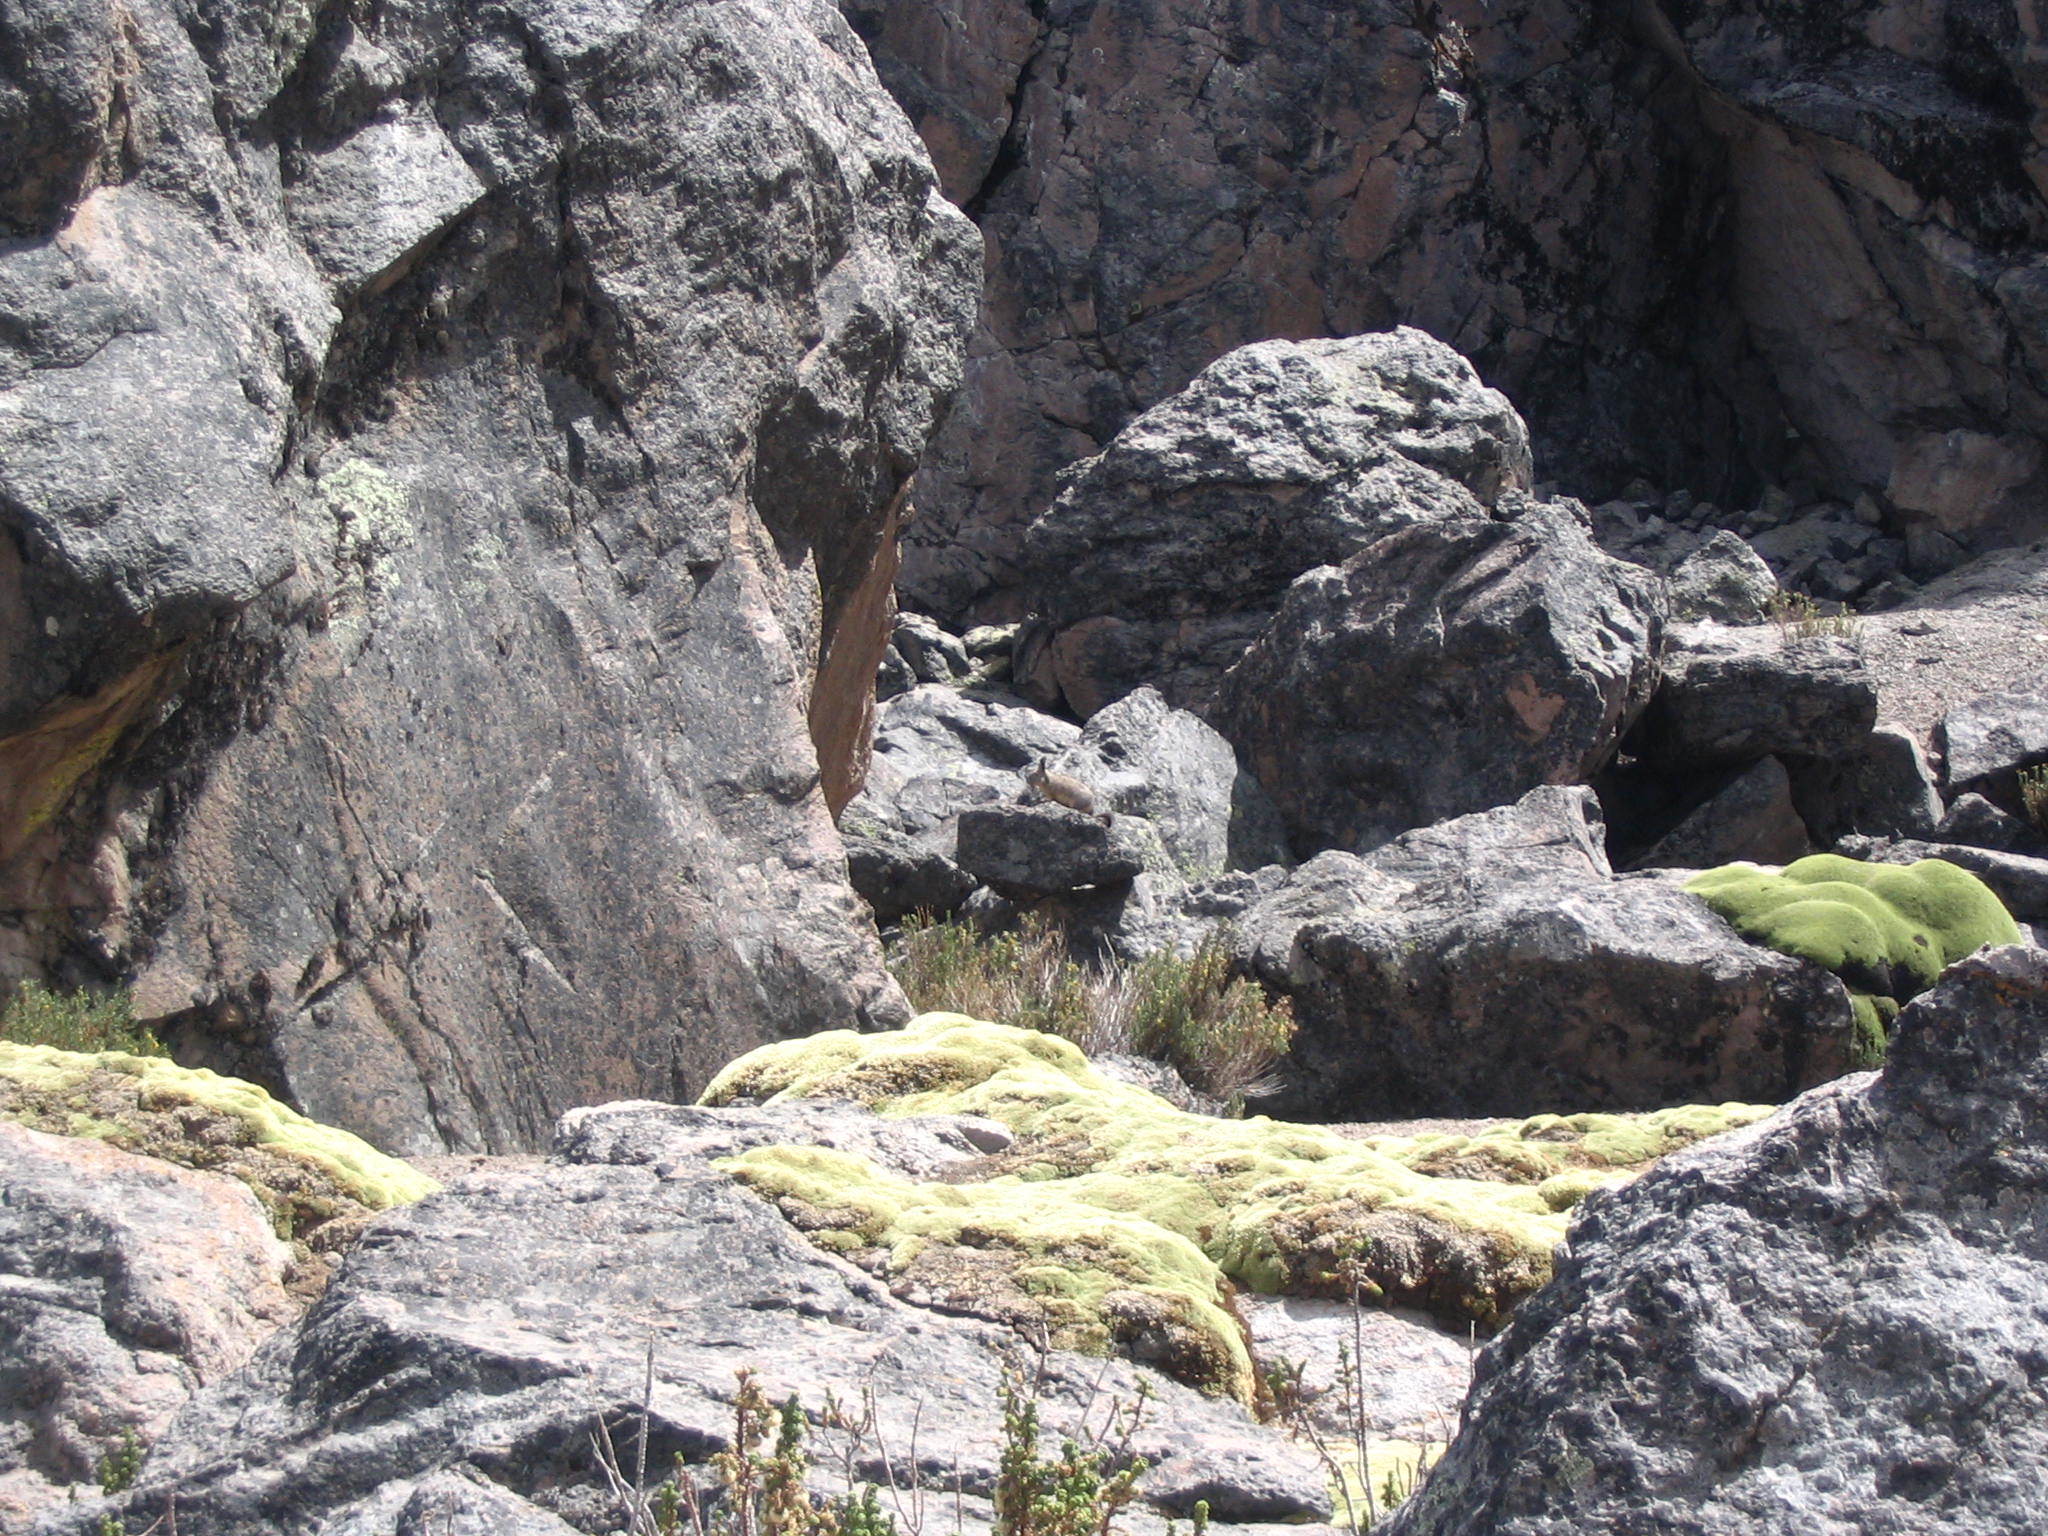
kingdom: Animalia
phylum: Chordata
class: Mammalia
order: Rodentia
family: Chinchillidae
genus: Lagidium
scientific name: Lagidium viscacia
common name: Southern viscacha
